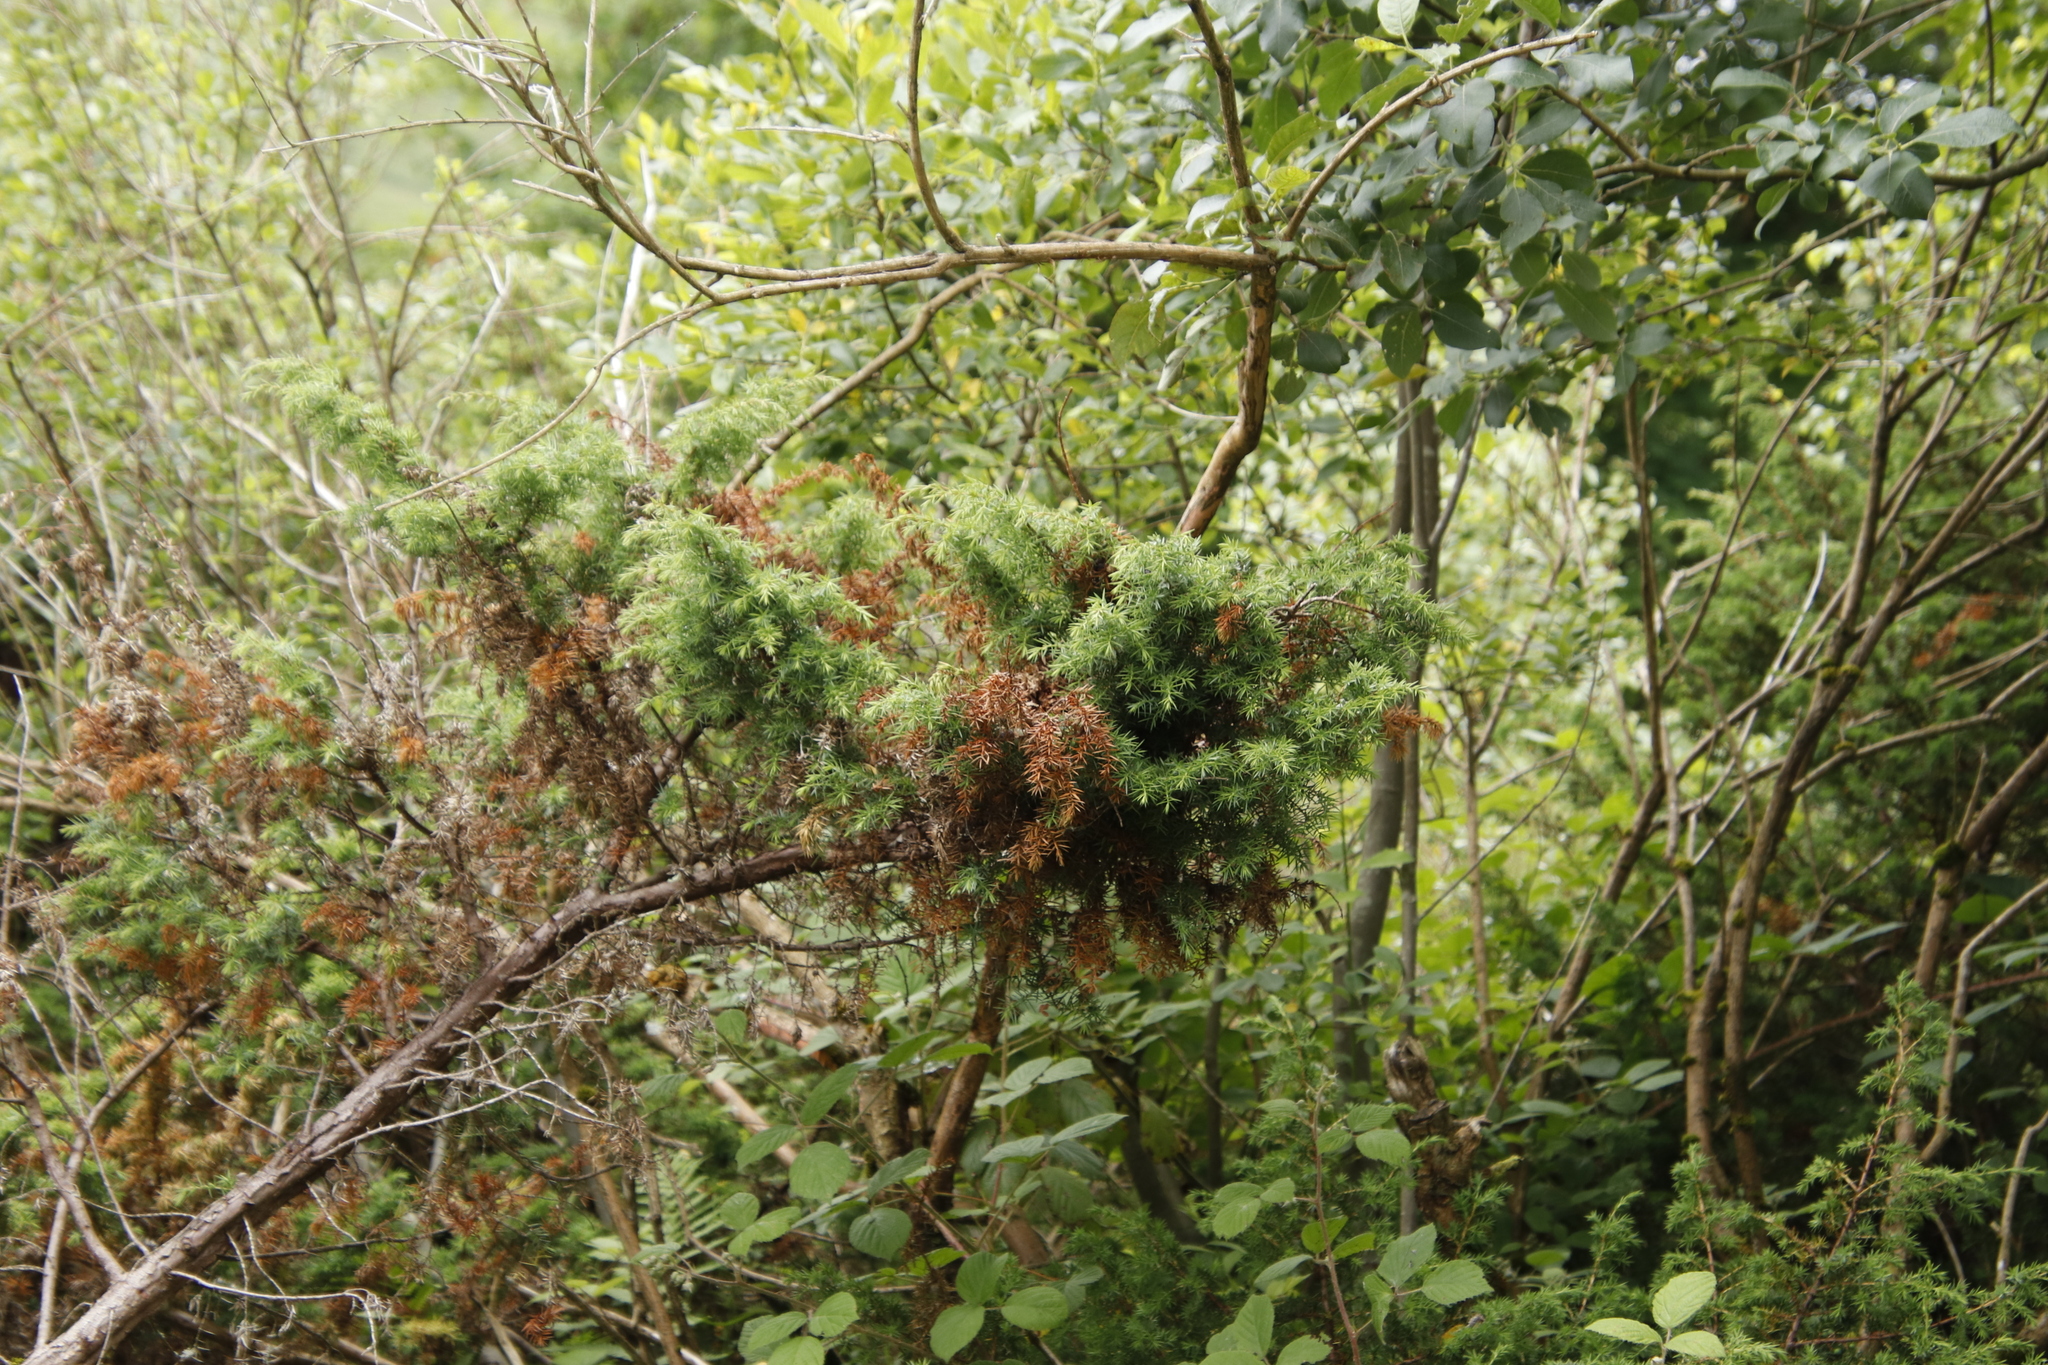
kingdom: Plantae
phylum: Tracheophyta
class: Pinopsida
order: Pinales
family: Cupressaceae
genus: Juniperus
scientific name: Juniperus communis
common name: Common juniper
